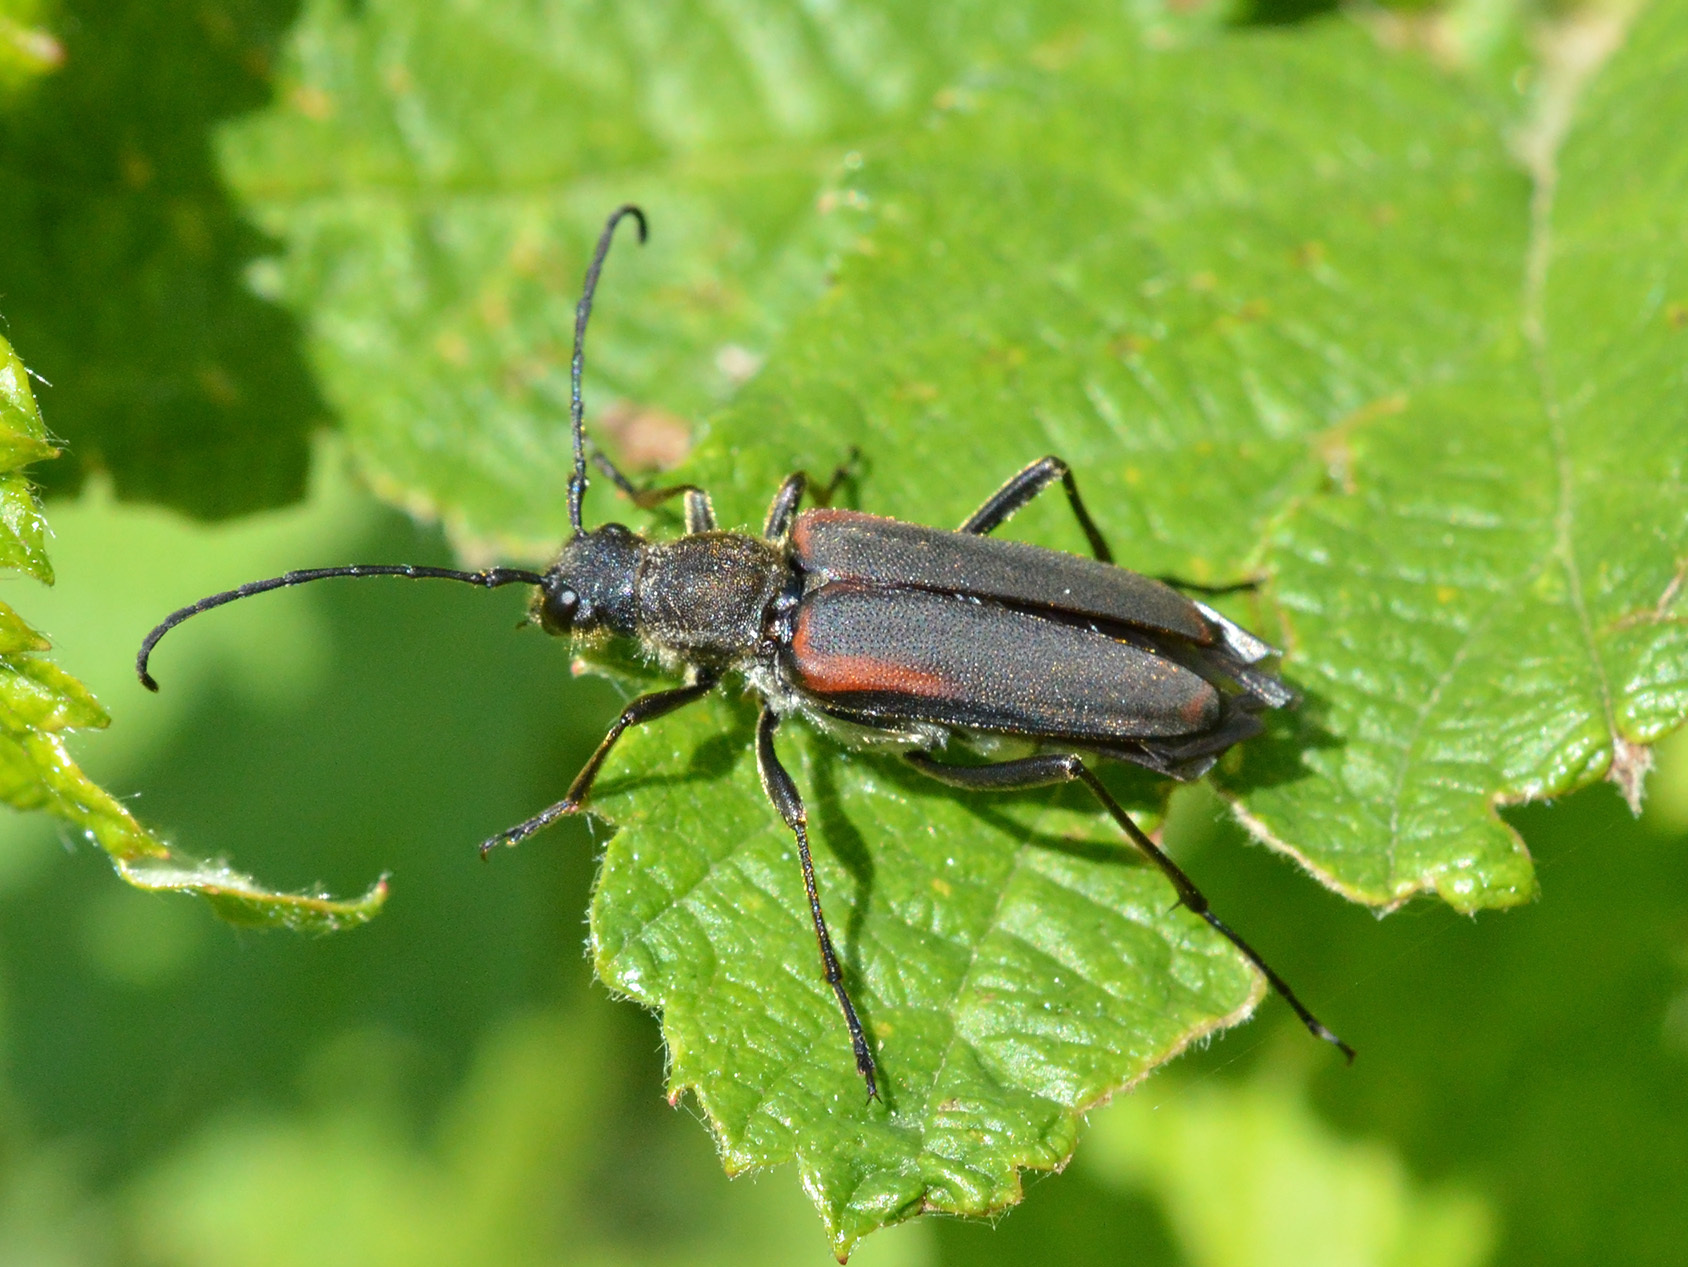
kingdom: Animalia
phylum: Arthropoda
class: Insecta
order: Coleoptera
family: Cerambycidae
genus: Anastrangalia
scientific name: Anastrangalia dubia
